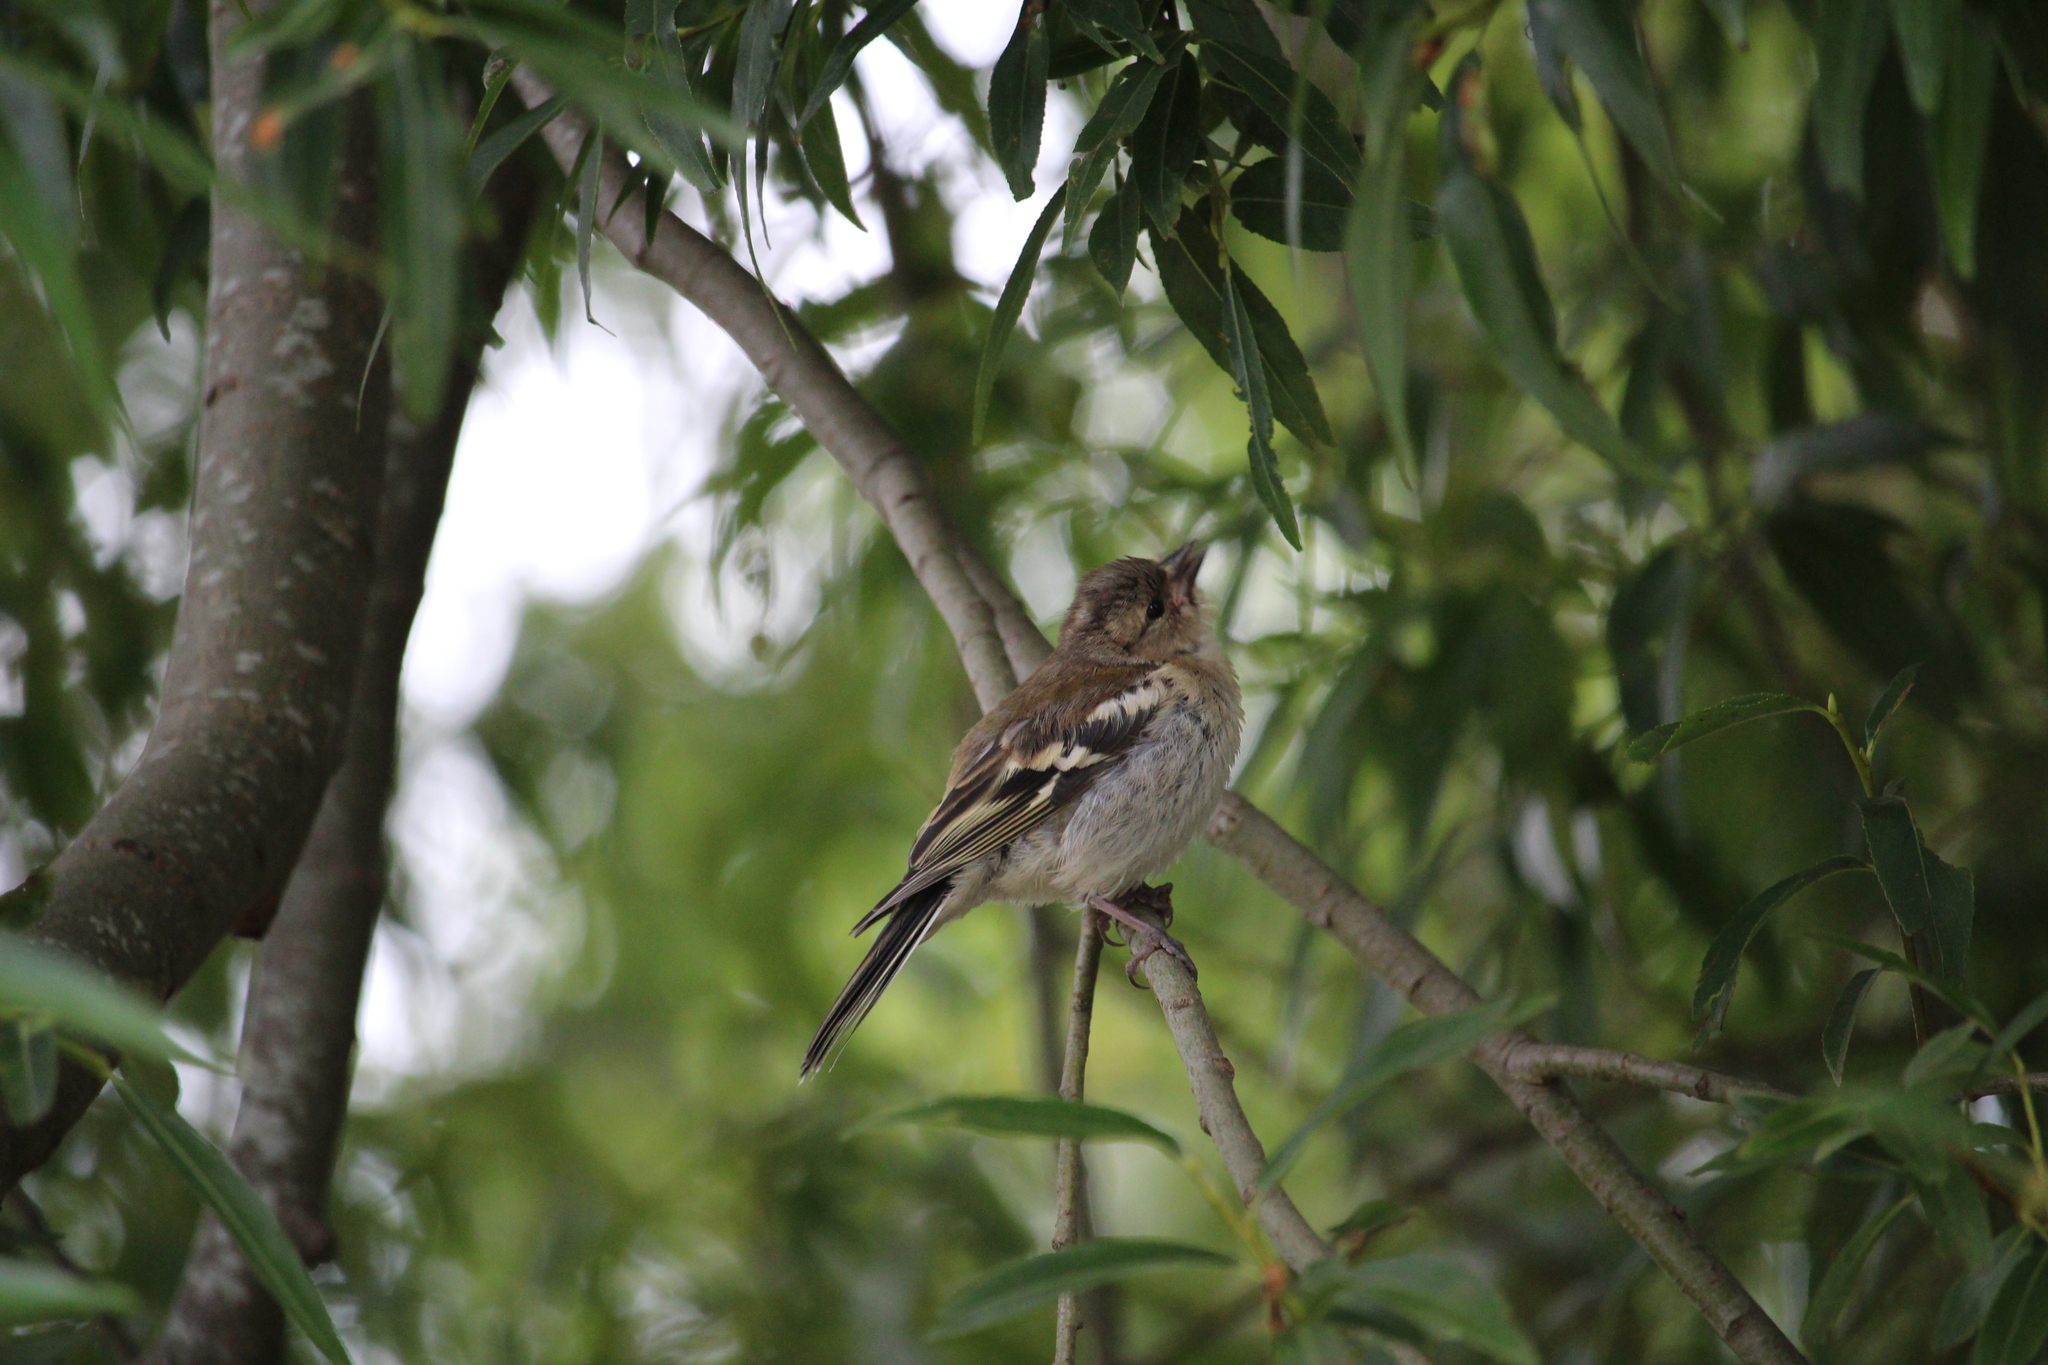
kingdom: Animalia
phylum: Chordata
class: Aves
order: Passeriformes
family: Fringillidae
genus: Fringilla
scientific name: Fringilla coelebs
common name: Common chaffinch
